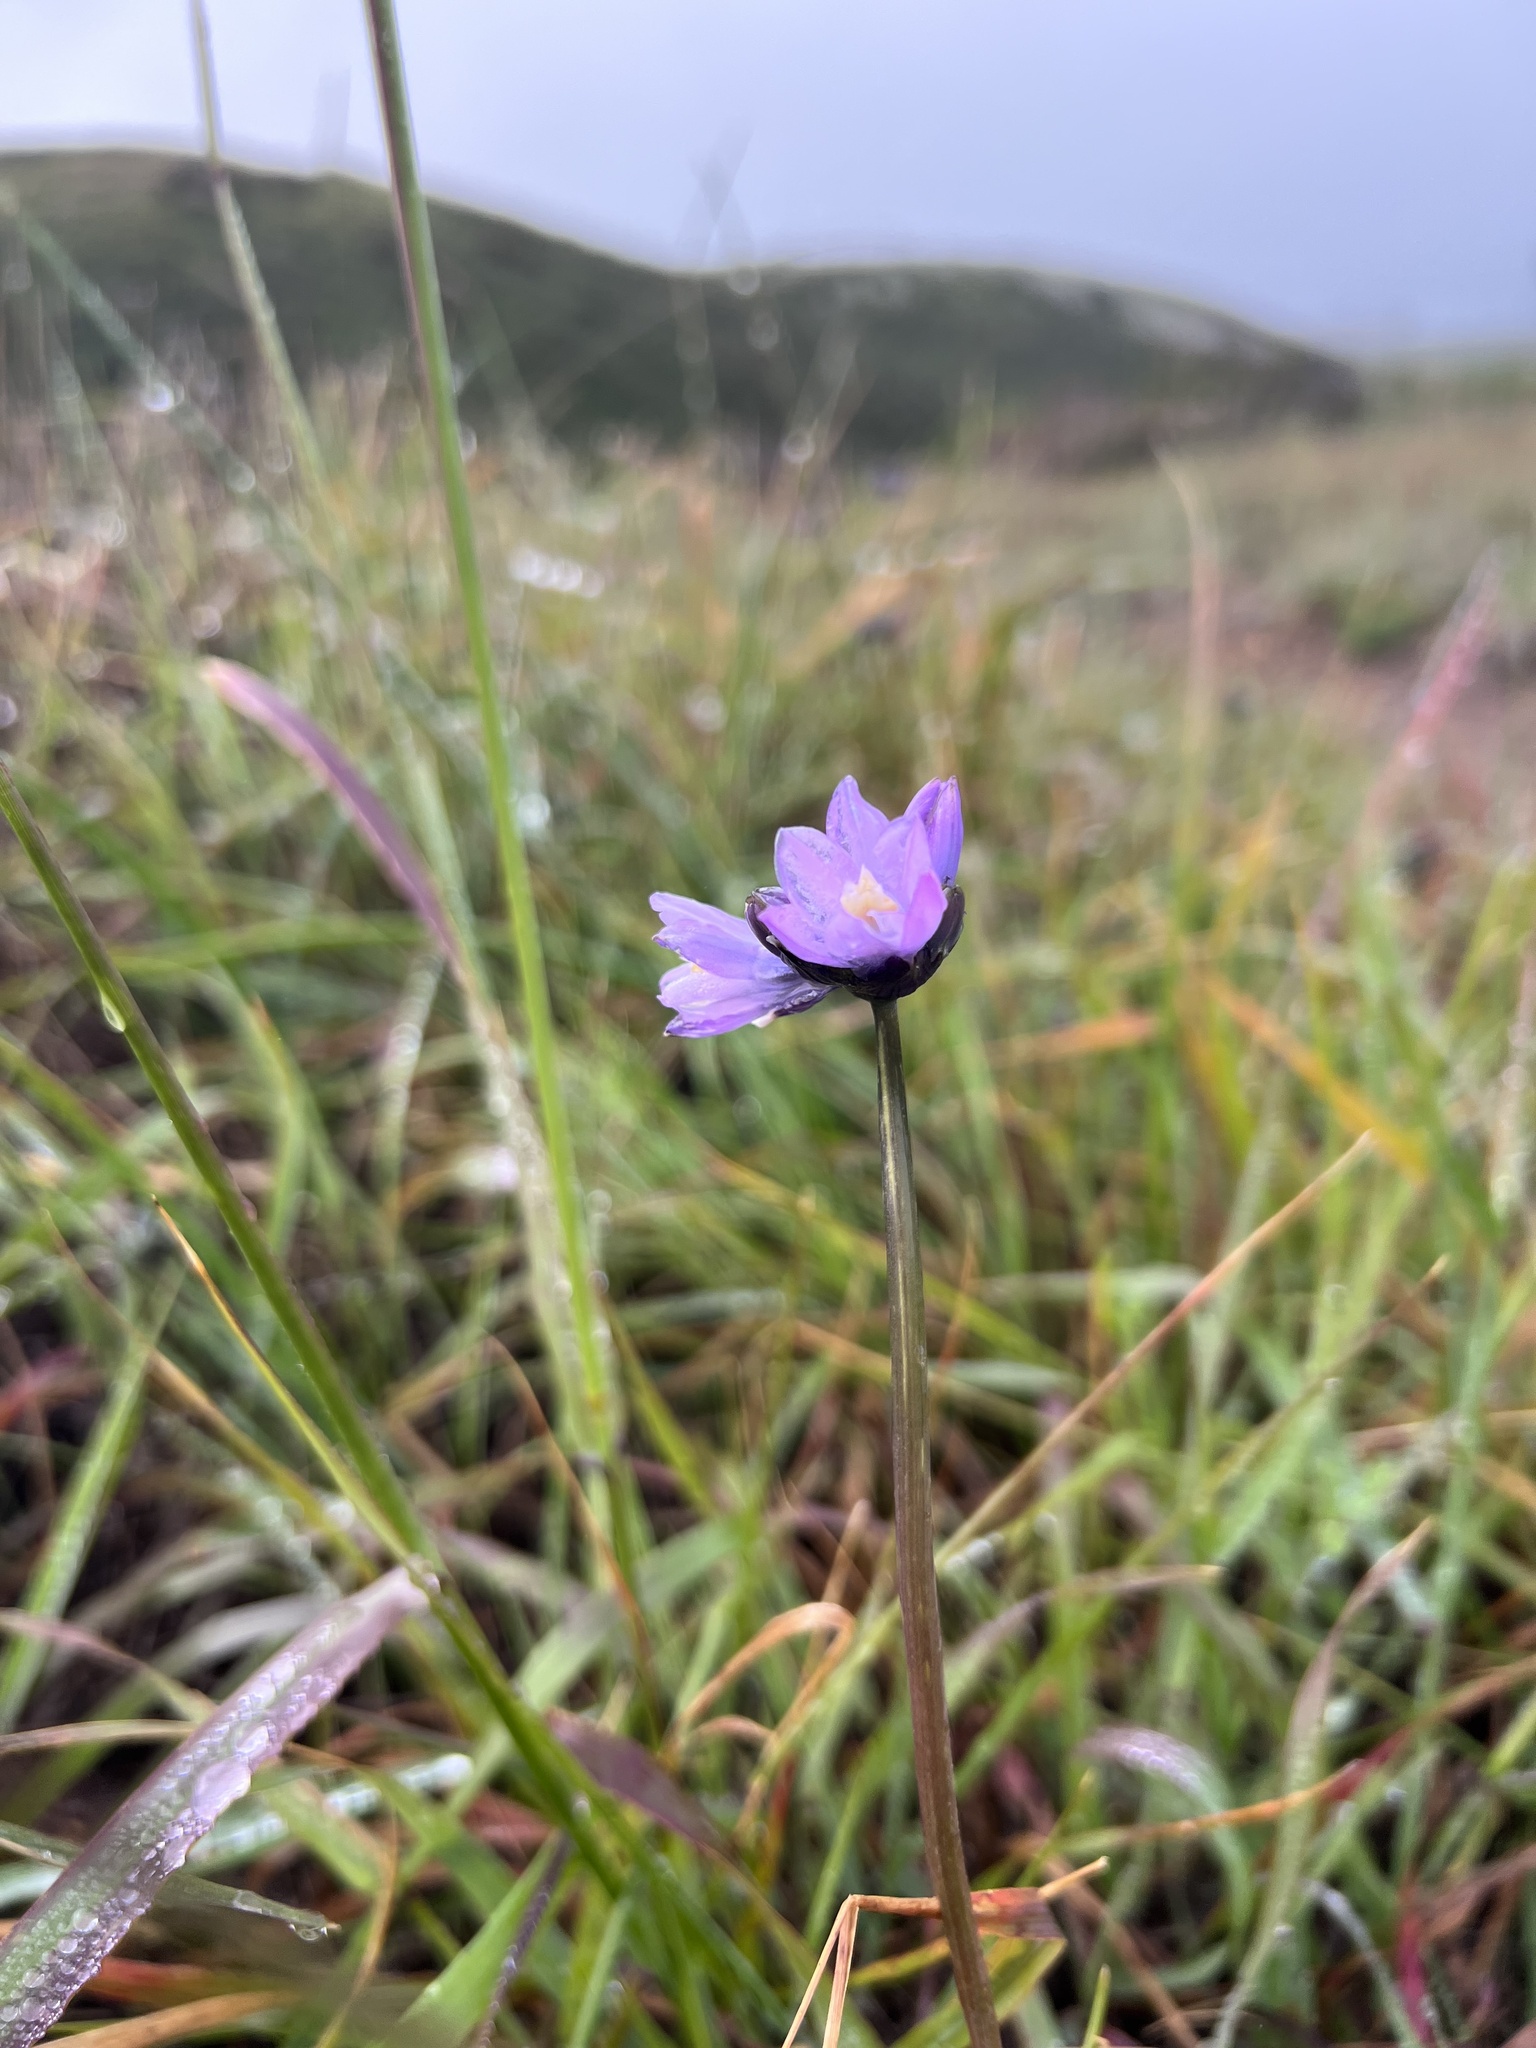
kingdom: Plantae
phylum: Tracheophyta
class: Liliopsida
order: Asparagales
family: Asparagaceae
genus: Dipterostemon
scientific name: Dipterostemon capitatus
